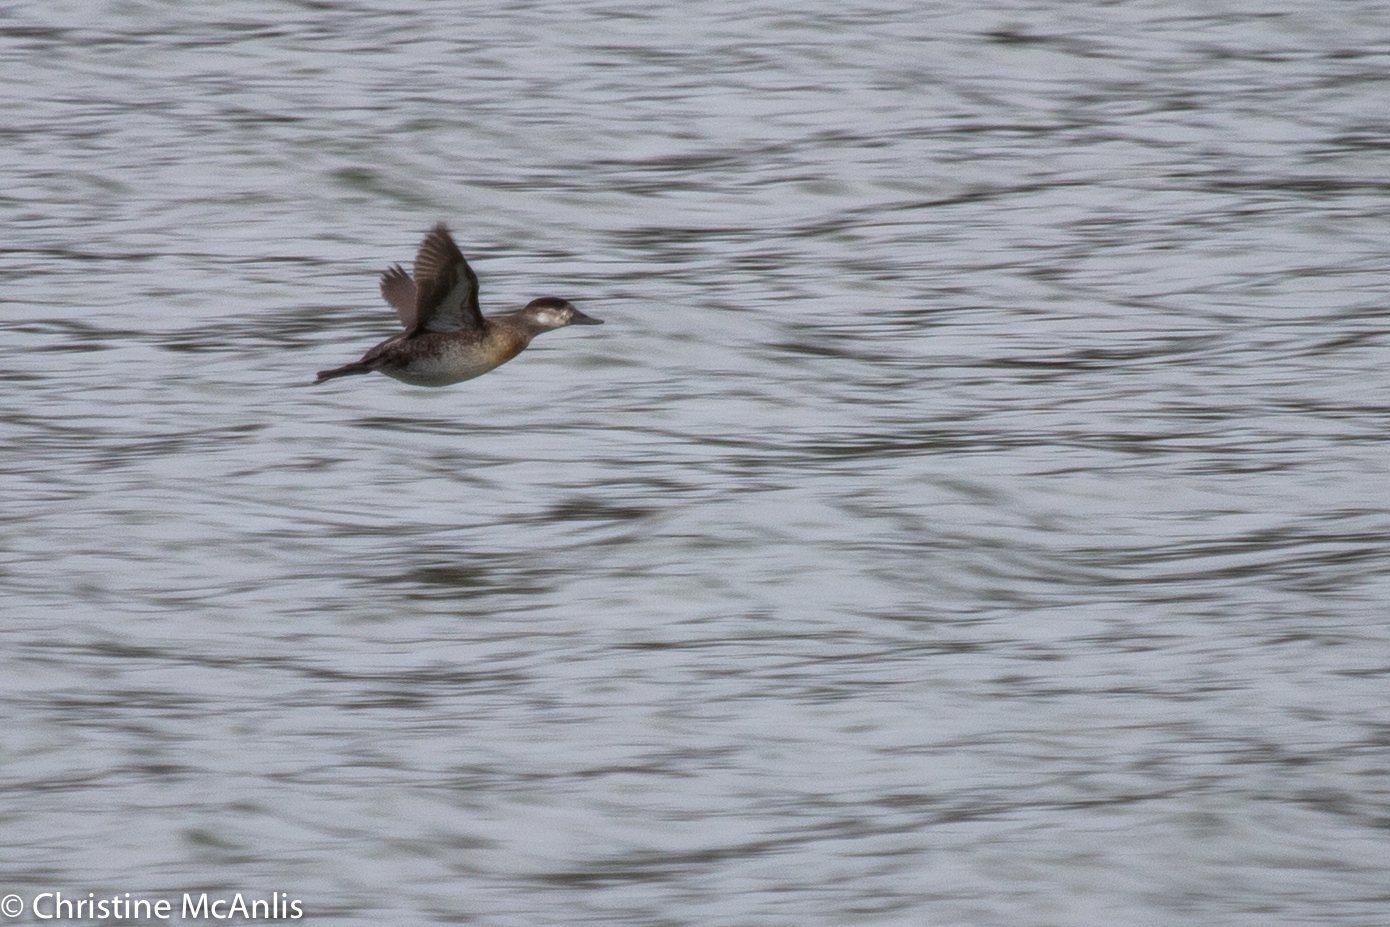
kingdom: Animalia
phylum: Chordata
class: Aves
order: Anseriformes
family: Anatidae
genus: Oxyura
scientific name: Oxyura jamaicensis
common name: Ruddy duck
